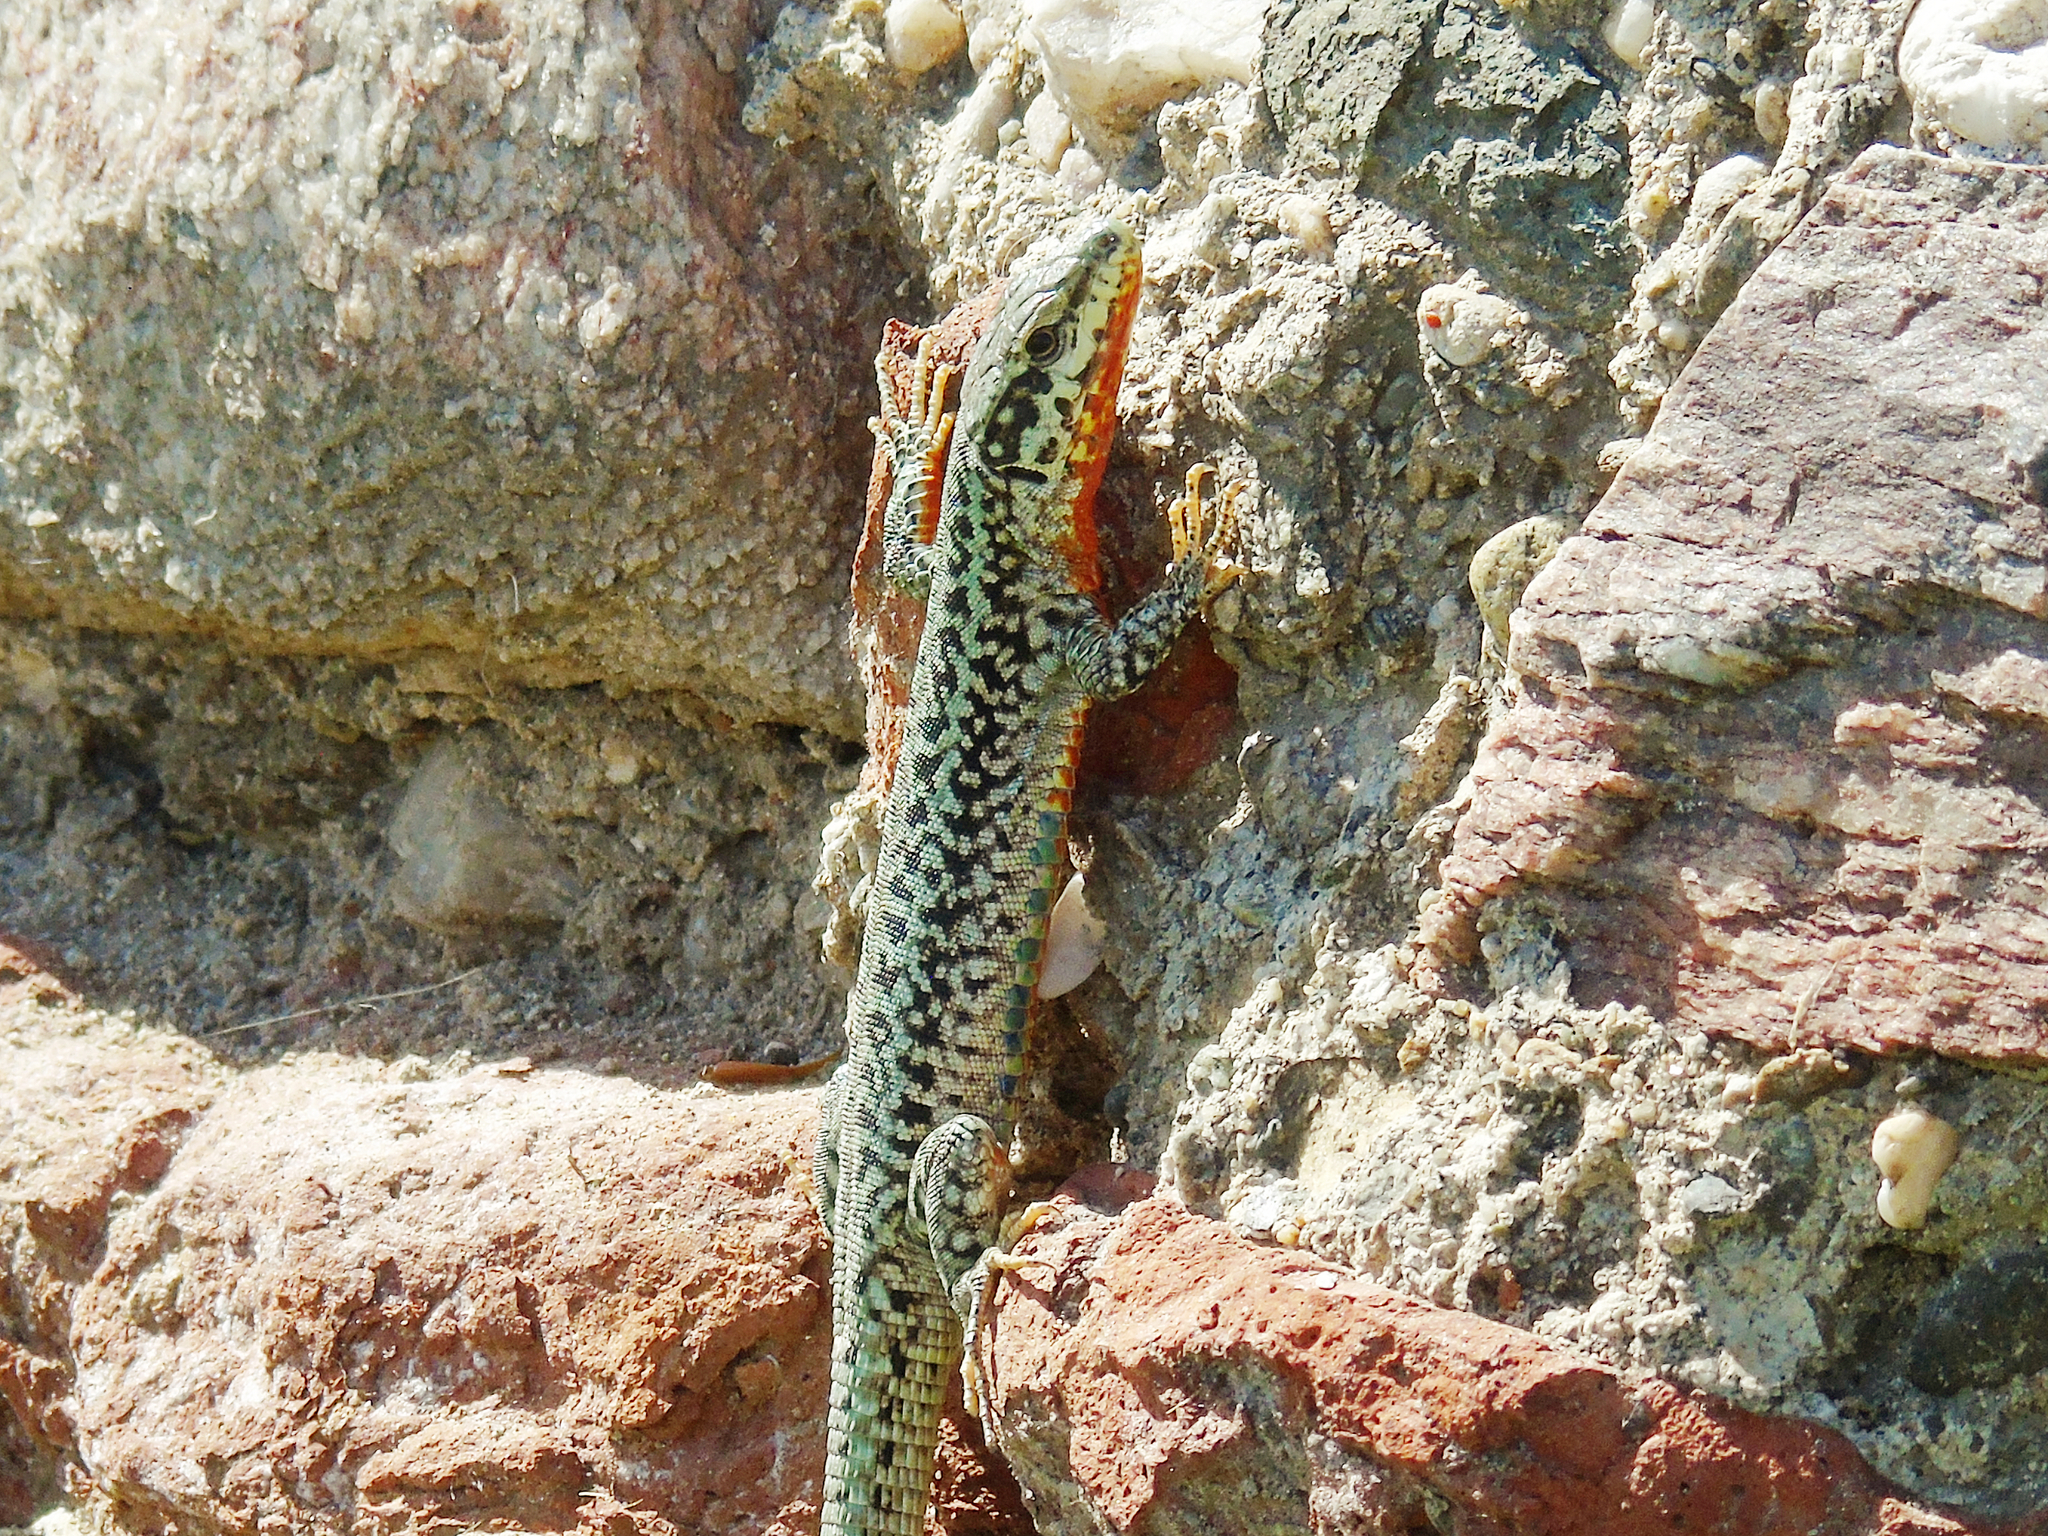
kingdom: Animalia
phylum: Chordata
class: Squamata
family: Lacertidae
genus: Podarcis
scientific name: Podarcis erhardii
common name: Erhard's wall lizard
